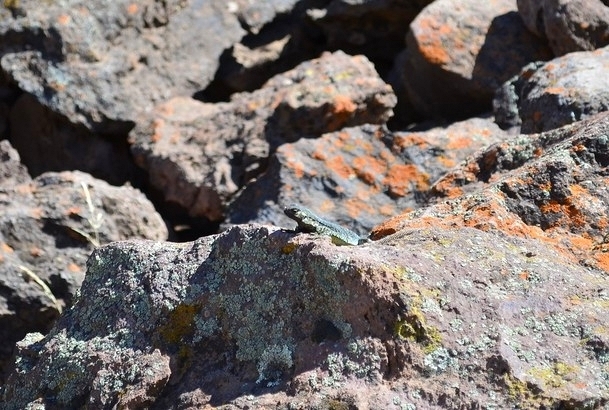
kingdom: Animalia
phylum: Chordata
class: Squamata
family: Liolaemidae
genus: Phymaturus
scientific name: Phymaturus verdugo
